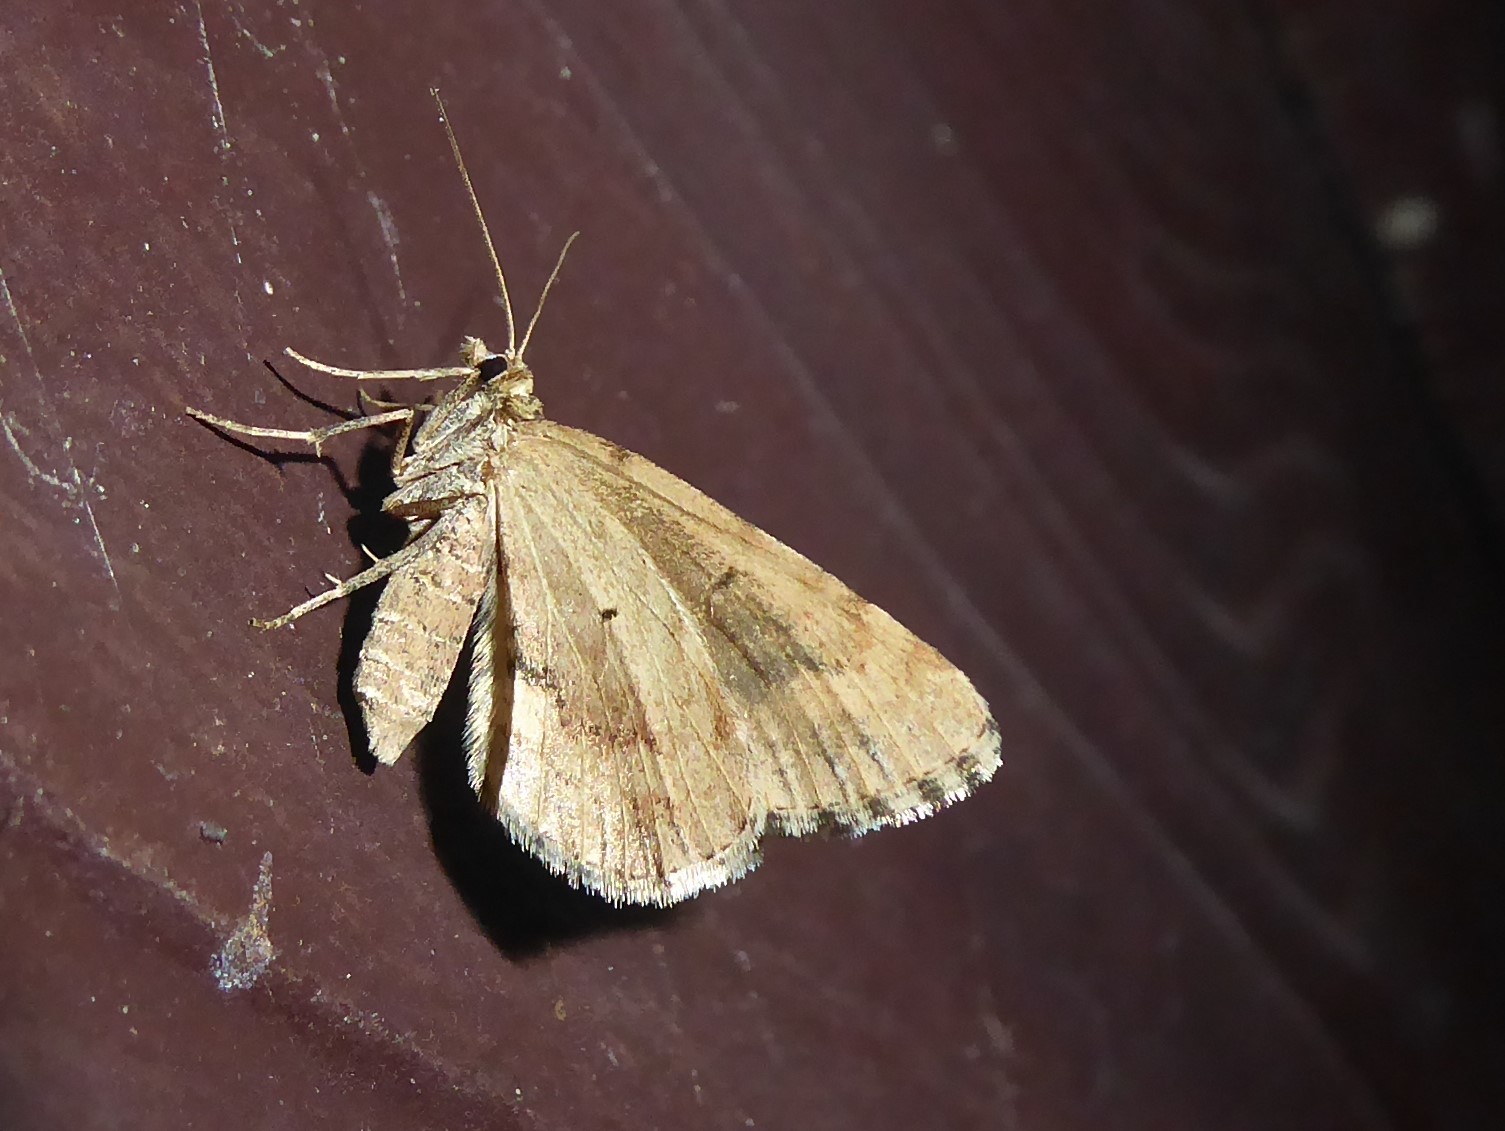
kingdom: Animalia
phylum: Arthropoda
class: Insecta
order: Lepidoptera
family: Geometridae
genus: Asaphodes
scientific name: Asaphodes aegrota
